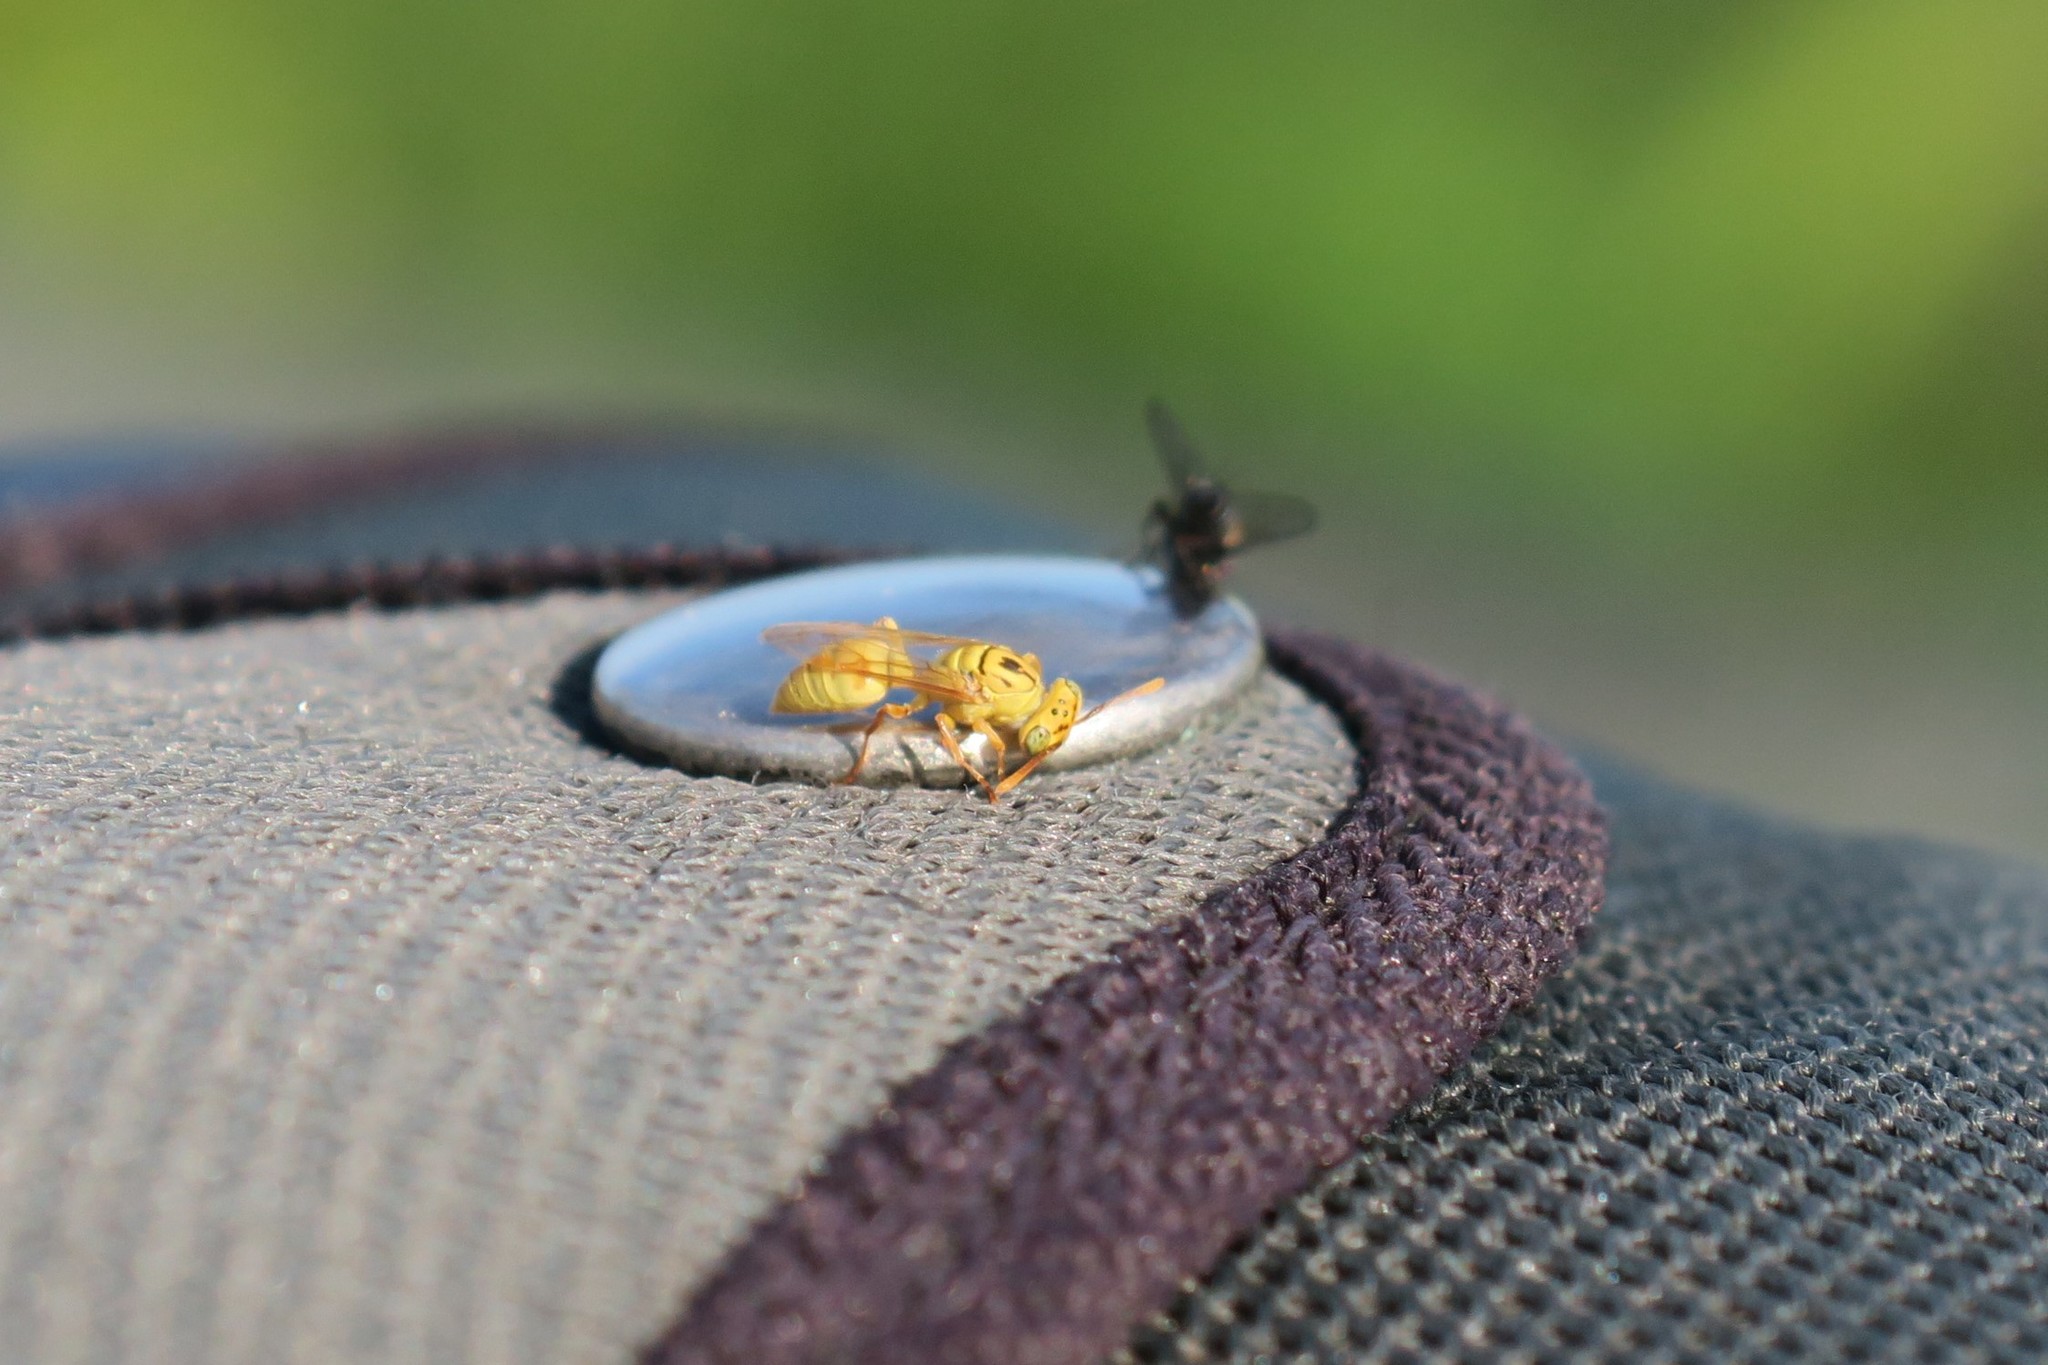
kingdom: Animalia
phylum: Arthropoda
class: Insecta
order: Hymenoptera
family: Vespidae
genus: Protopolybia
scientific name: Protopolybia amarella
